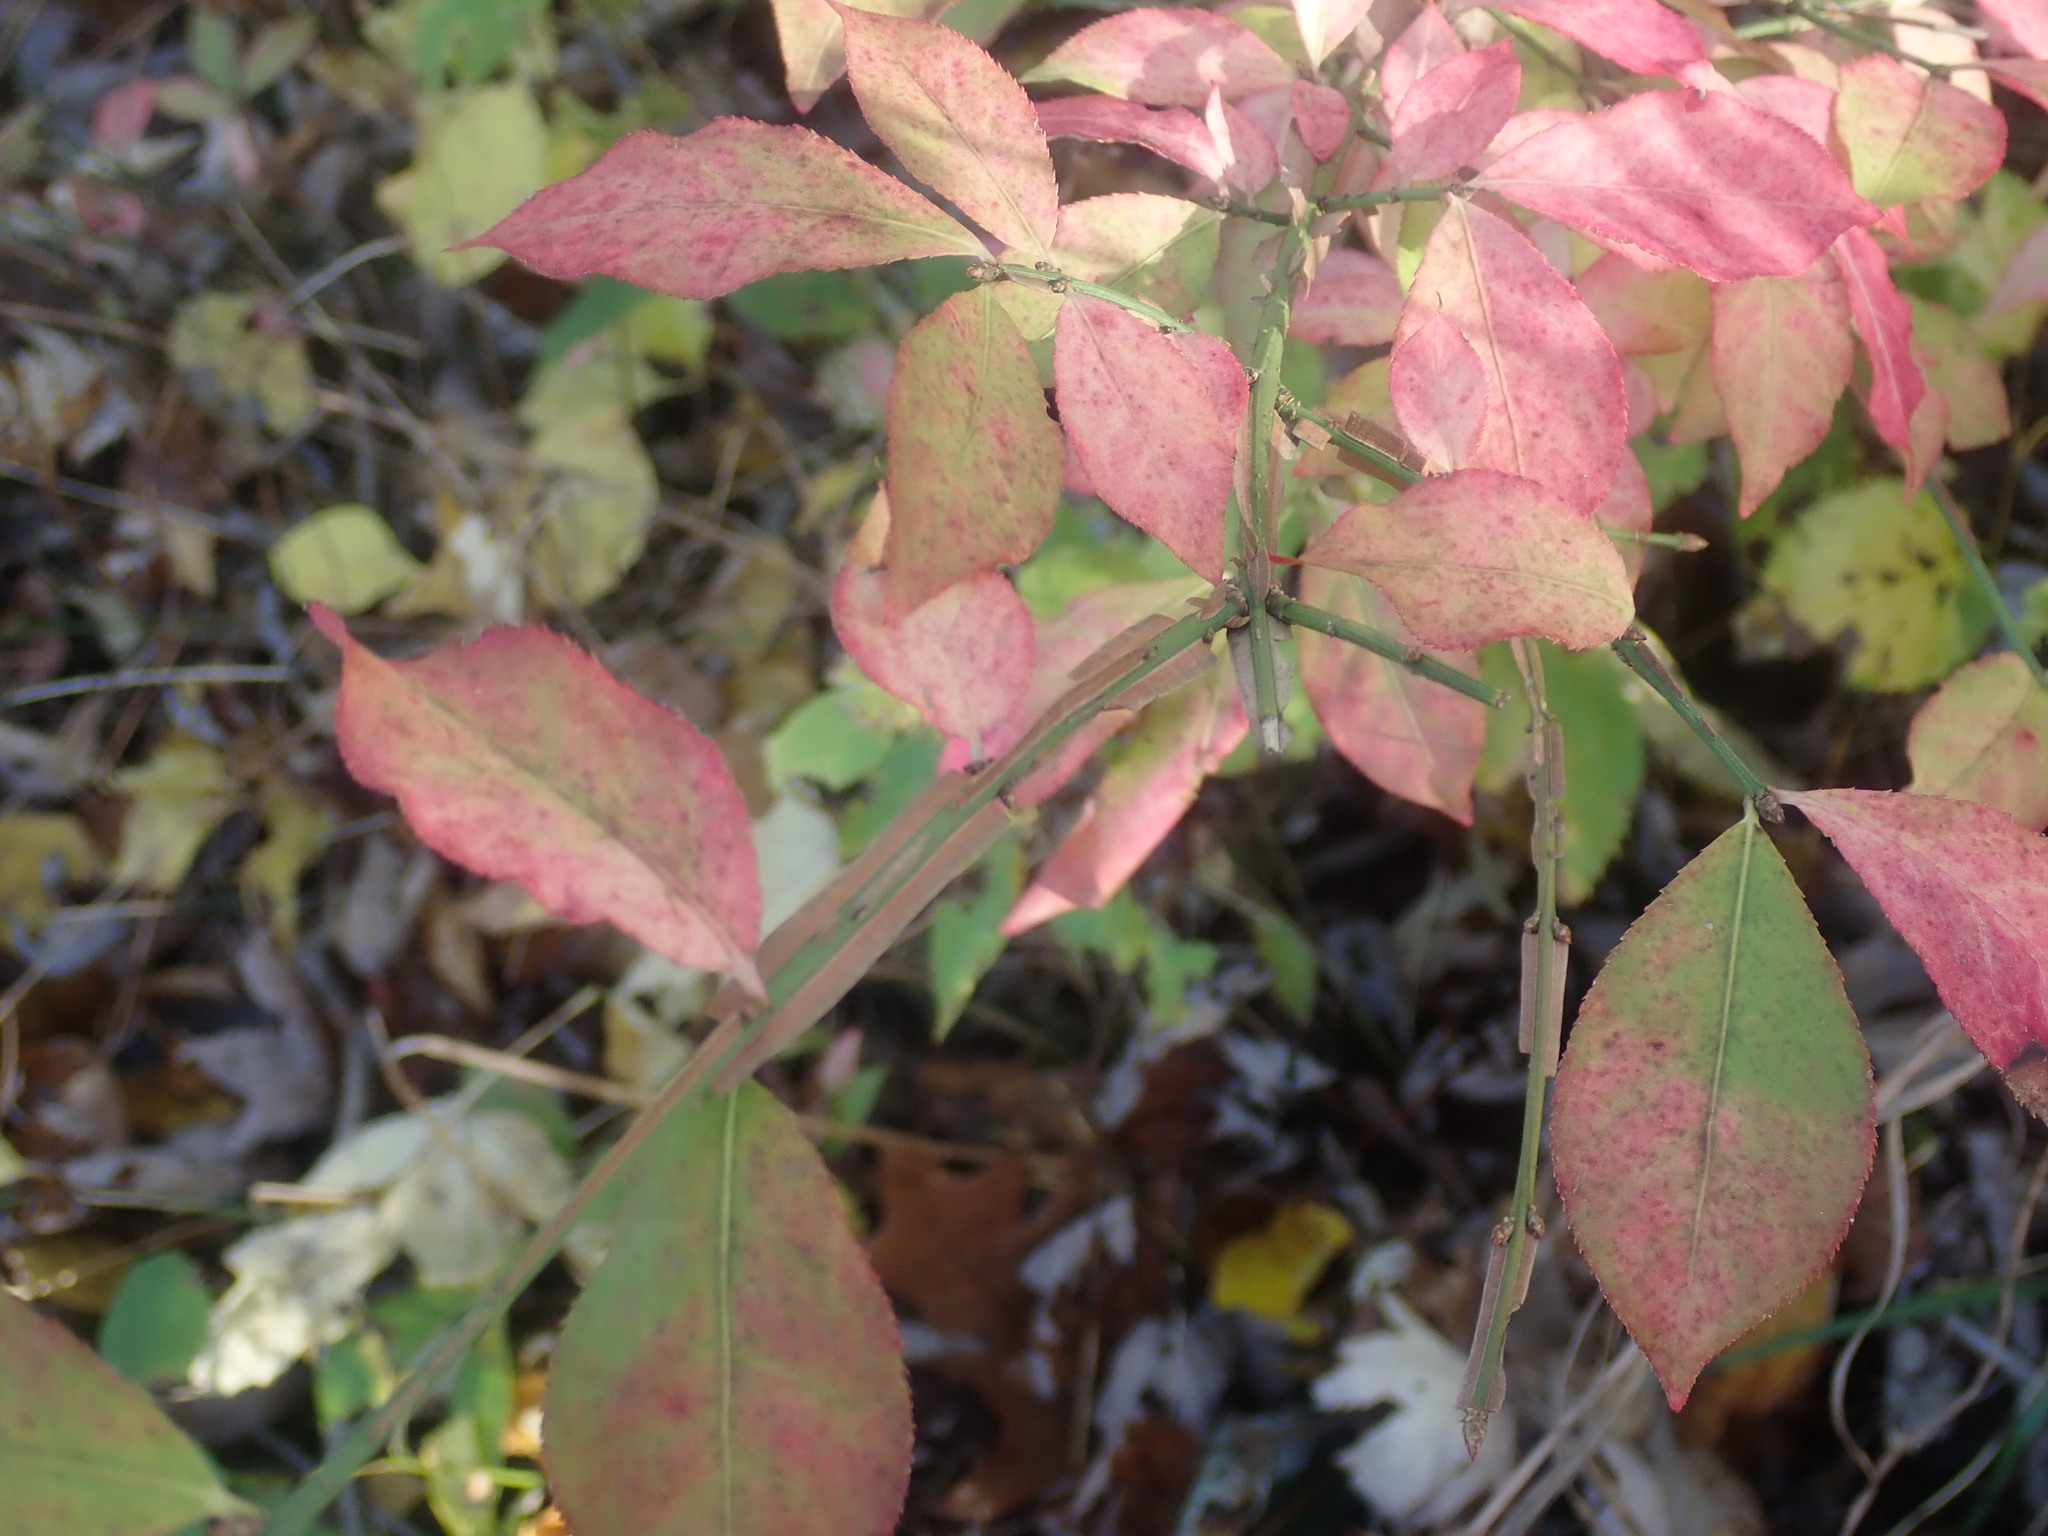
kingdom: Plantae
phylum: Tracheophyta
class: Magnoliopsida
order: Celastrales
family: Celastraceae
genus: Euonymus
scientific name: Euonymus alatus
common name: Winged euonymus
